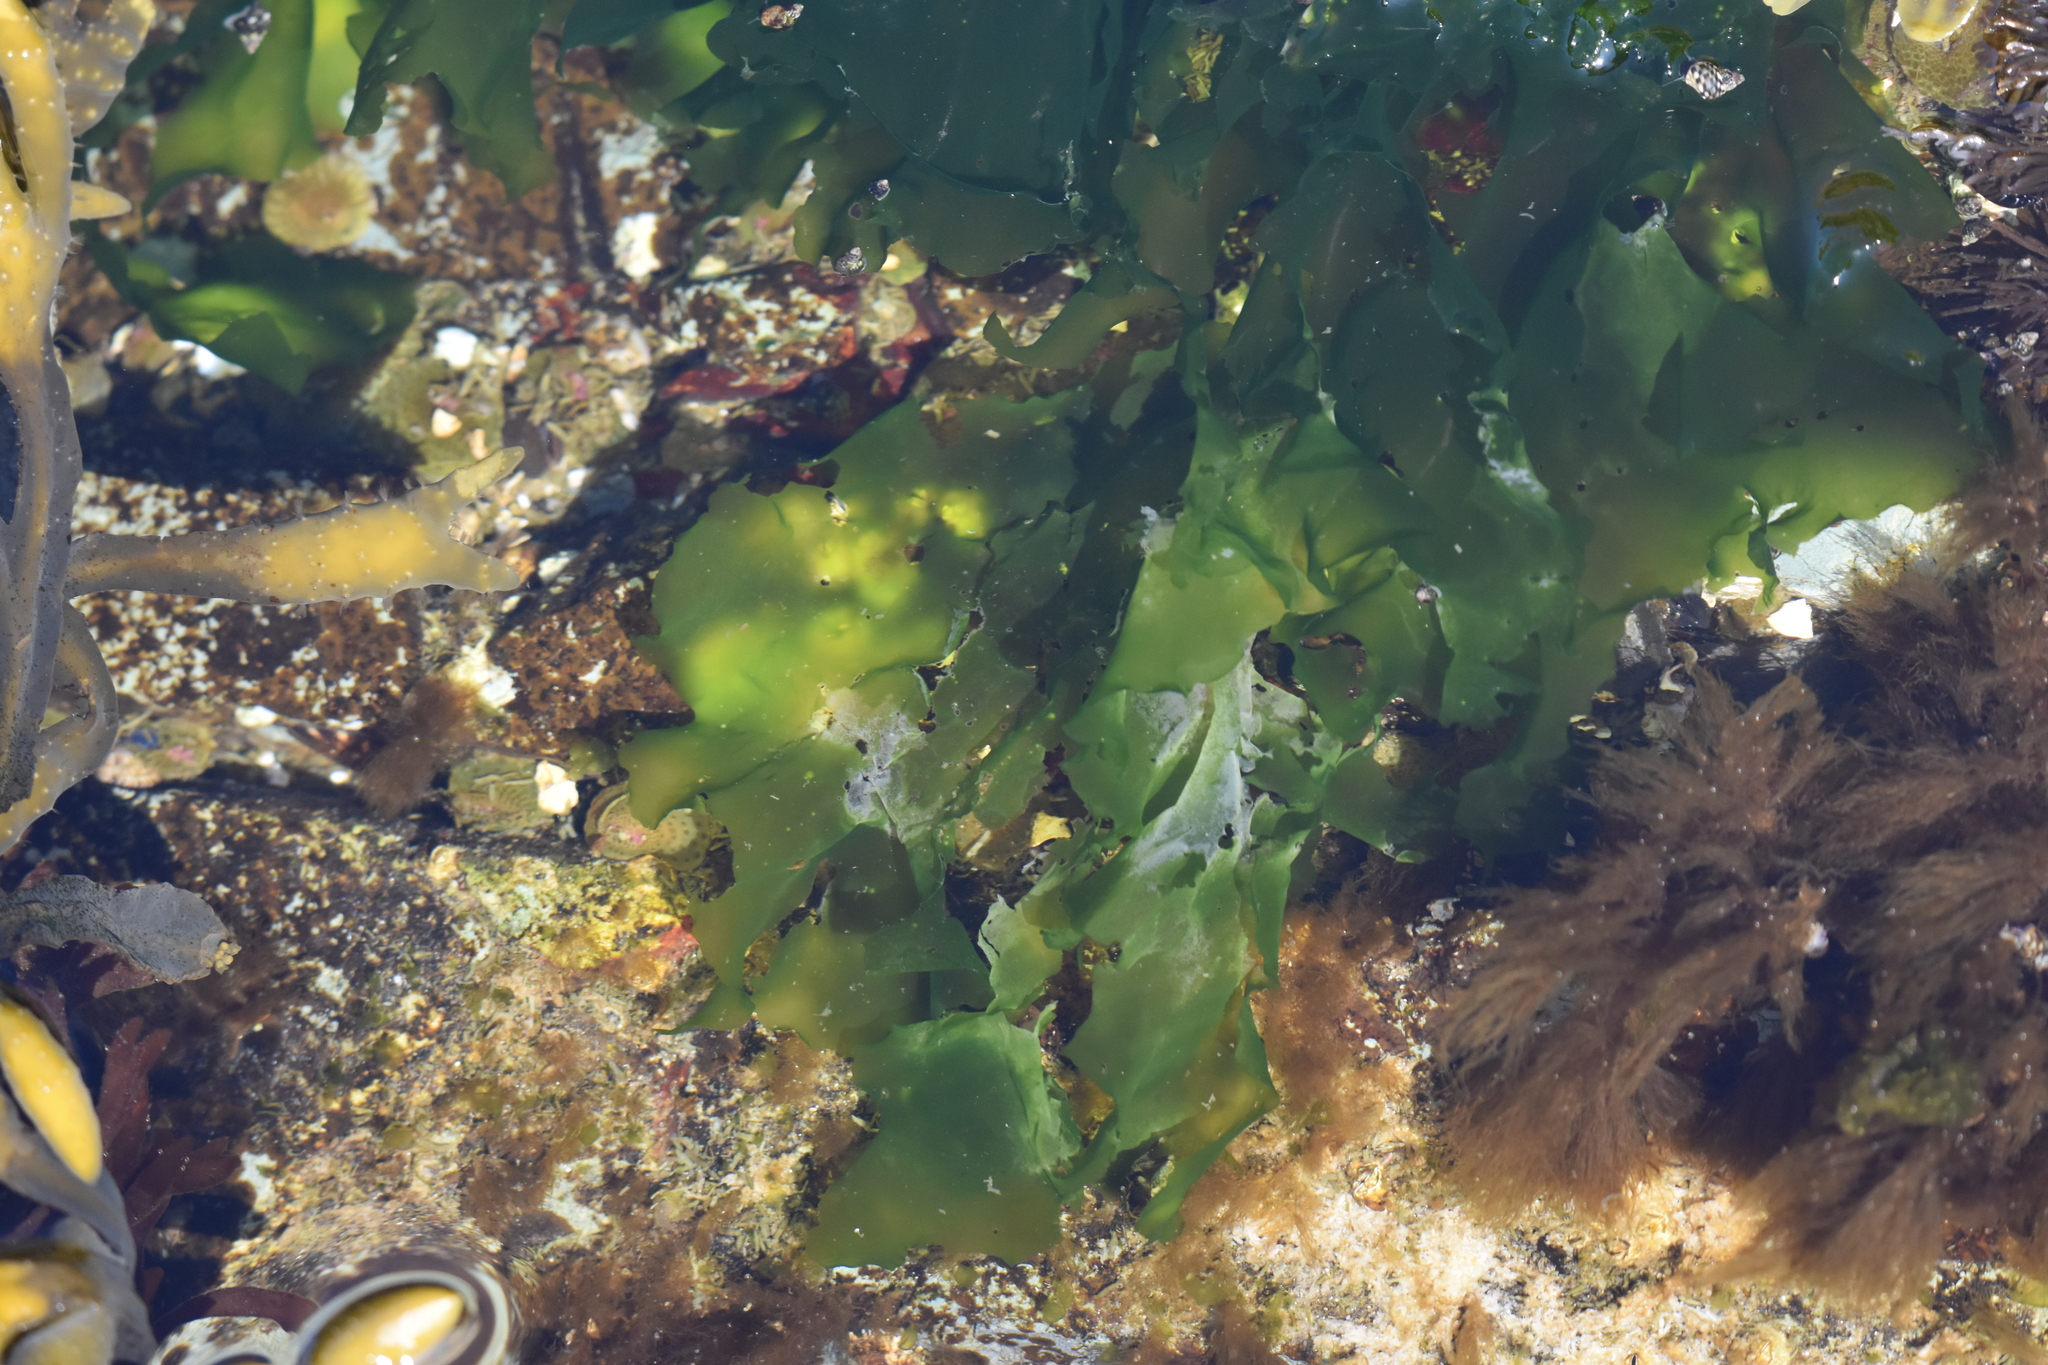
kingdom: Plantae
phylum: Chlorophyta
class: Ulvophyceae
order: Ulvales
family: Ulvaceae
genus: Ulva
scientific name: Ulva lactuca
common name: Sea lettuce
